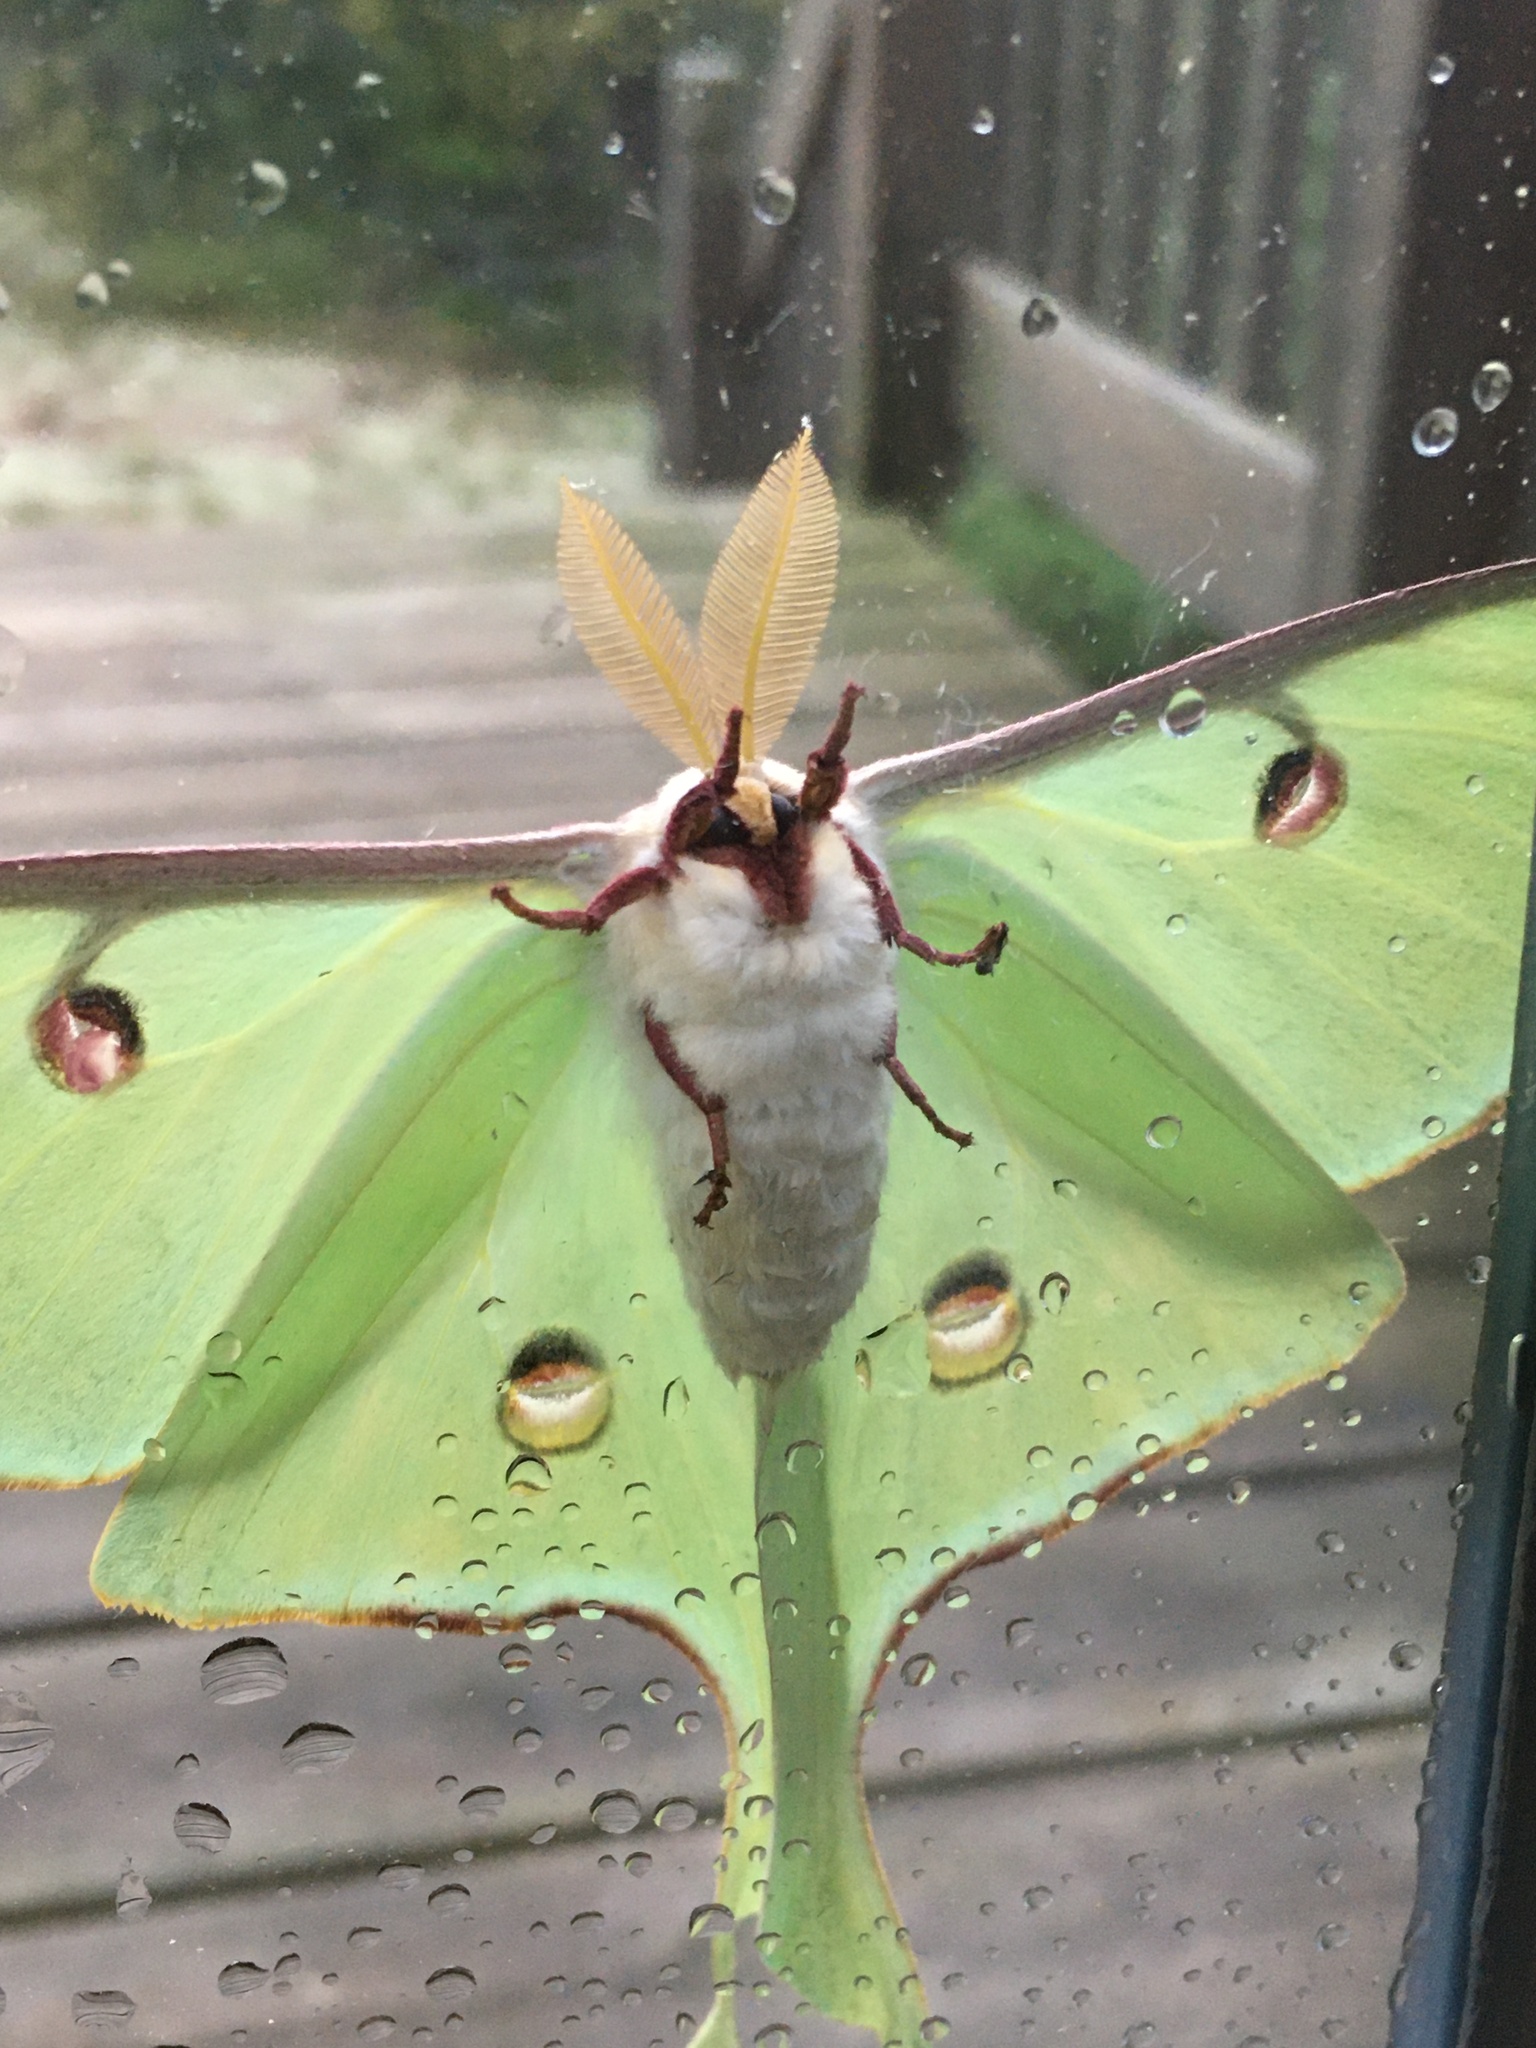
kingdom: Animalia
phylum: Arthropoda
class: Insecta
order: Lepidoptera
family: Saturniidae
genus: Actias
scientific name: Actias luna
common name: Luna moth
